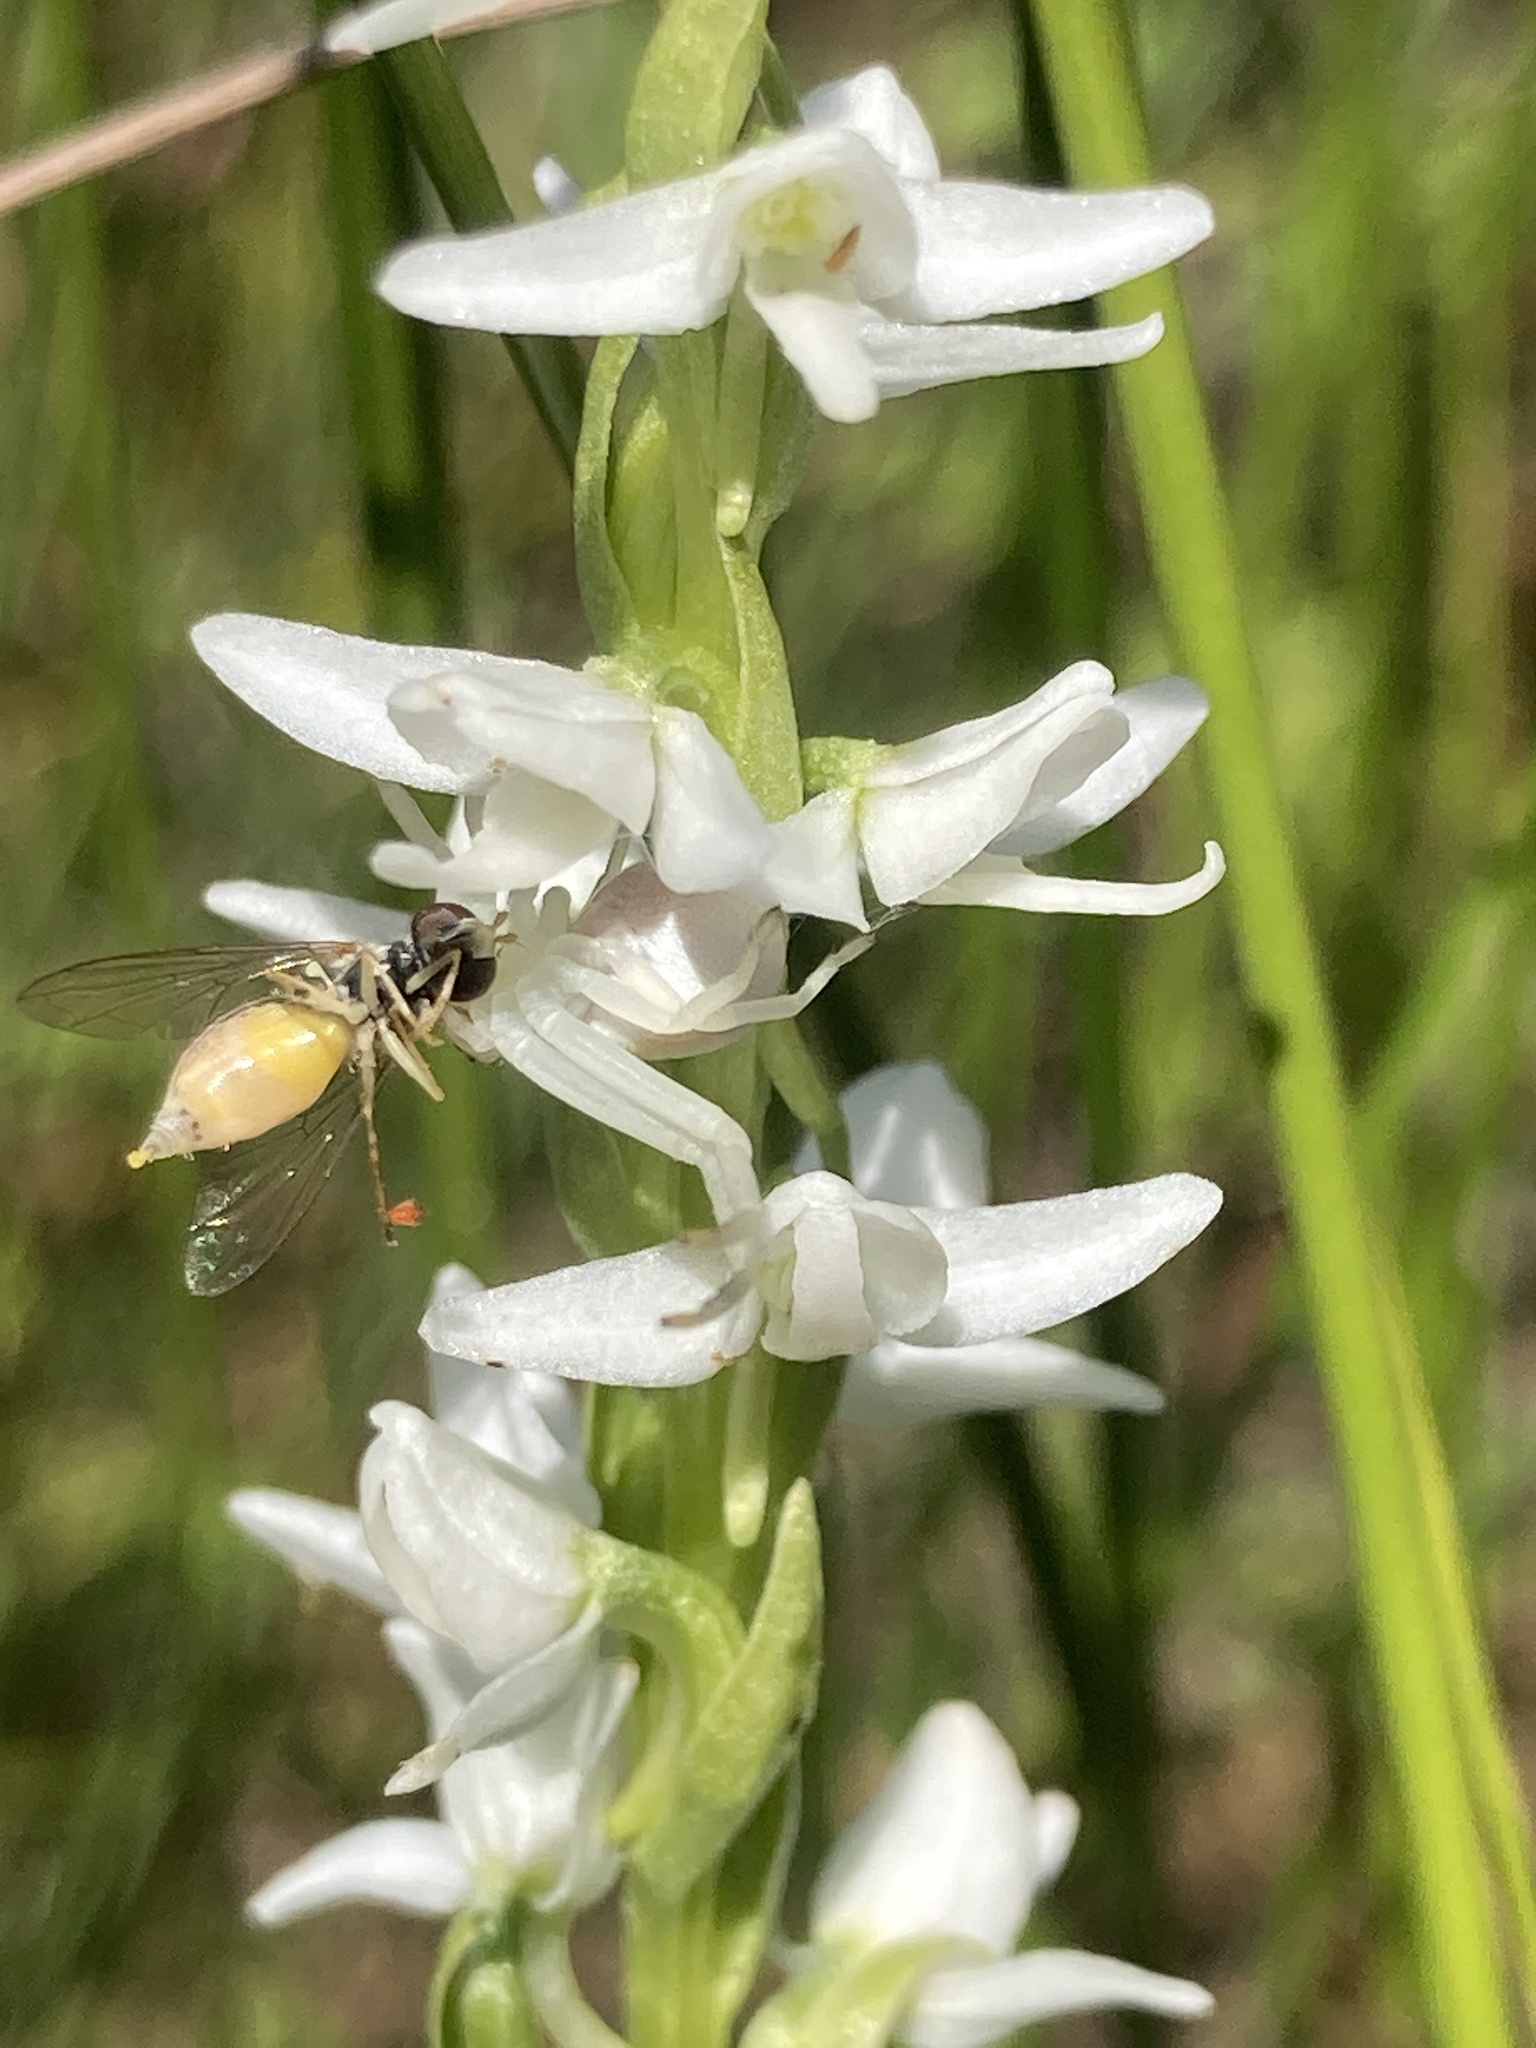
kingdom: Plantae
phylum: Tracheophyta
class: Liliopsida
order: Asparagales
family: Orchidaceae
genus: Platanthera
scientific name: Platanthera dilatata
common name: Bog candles
